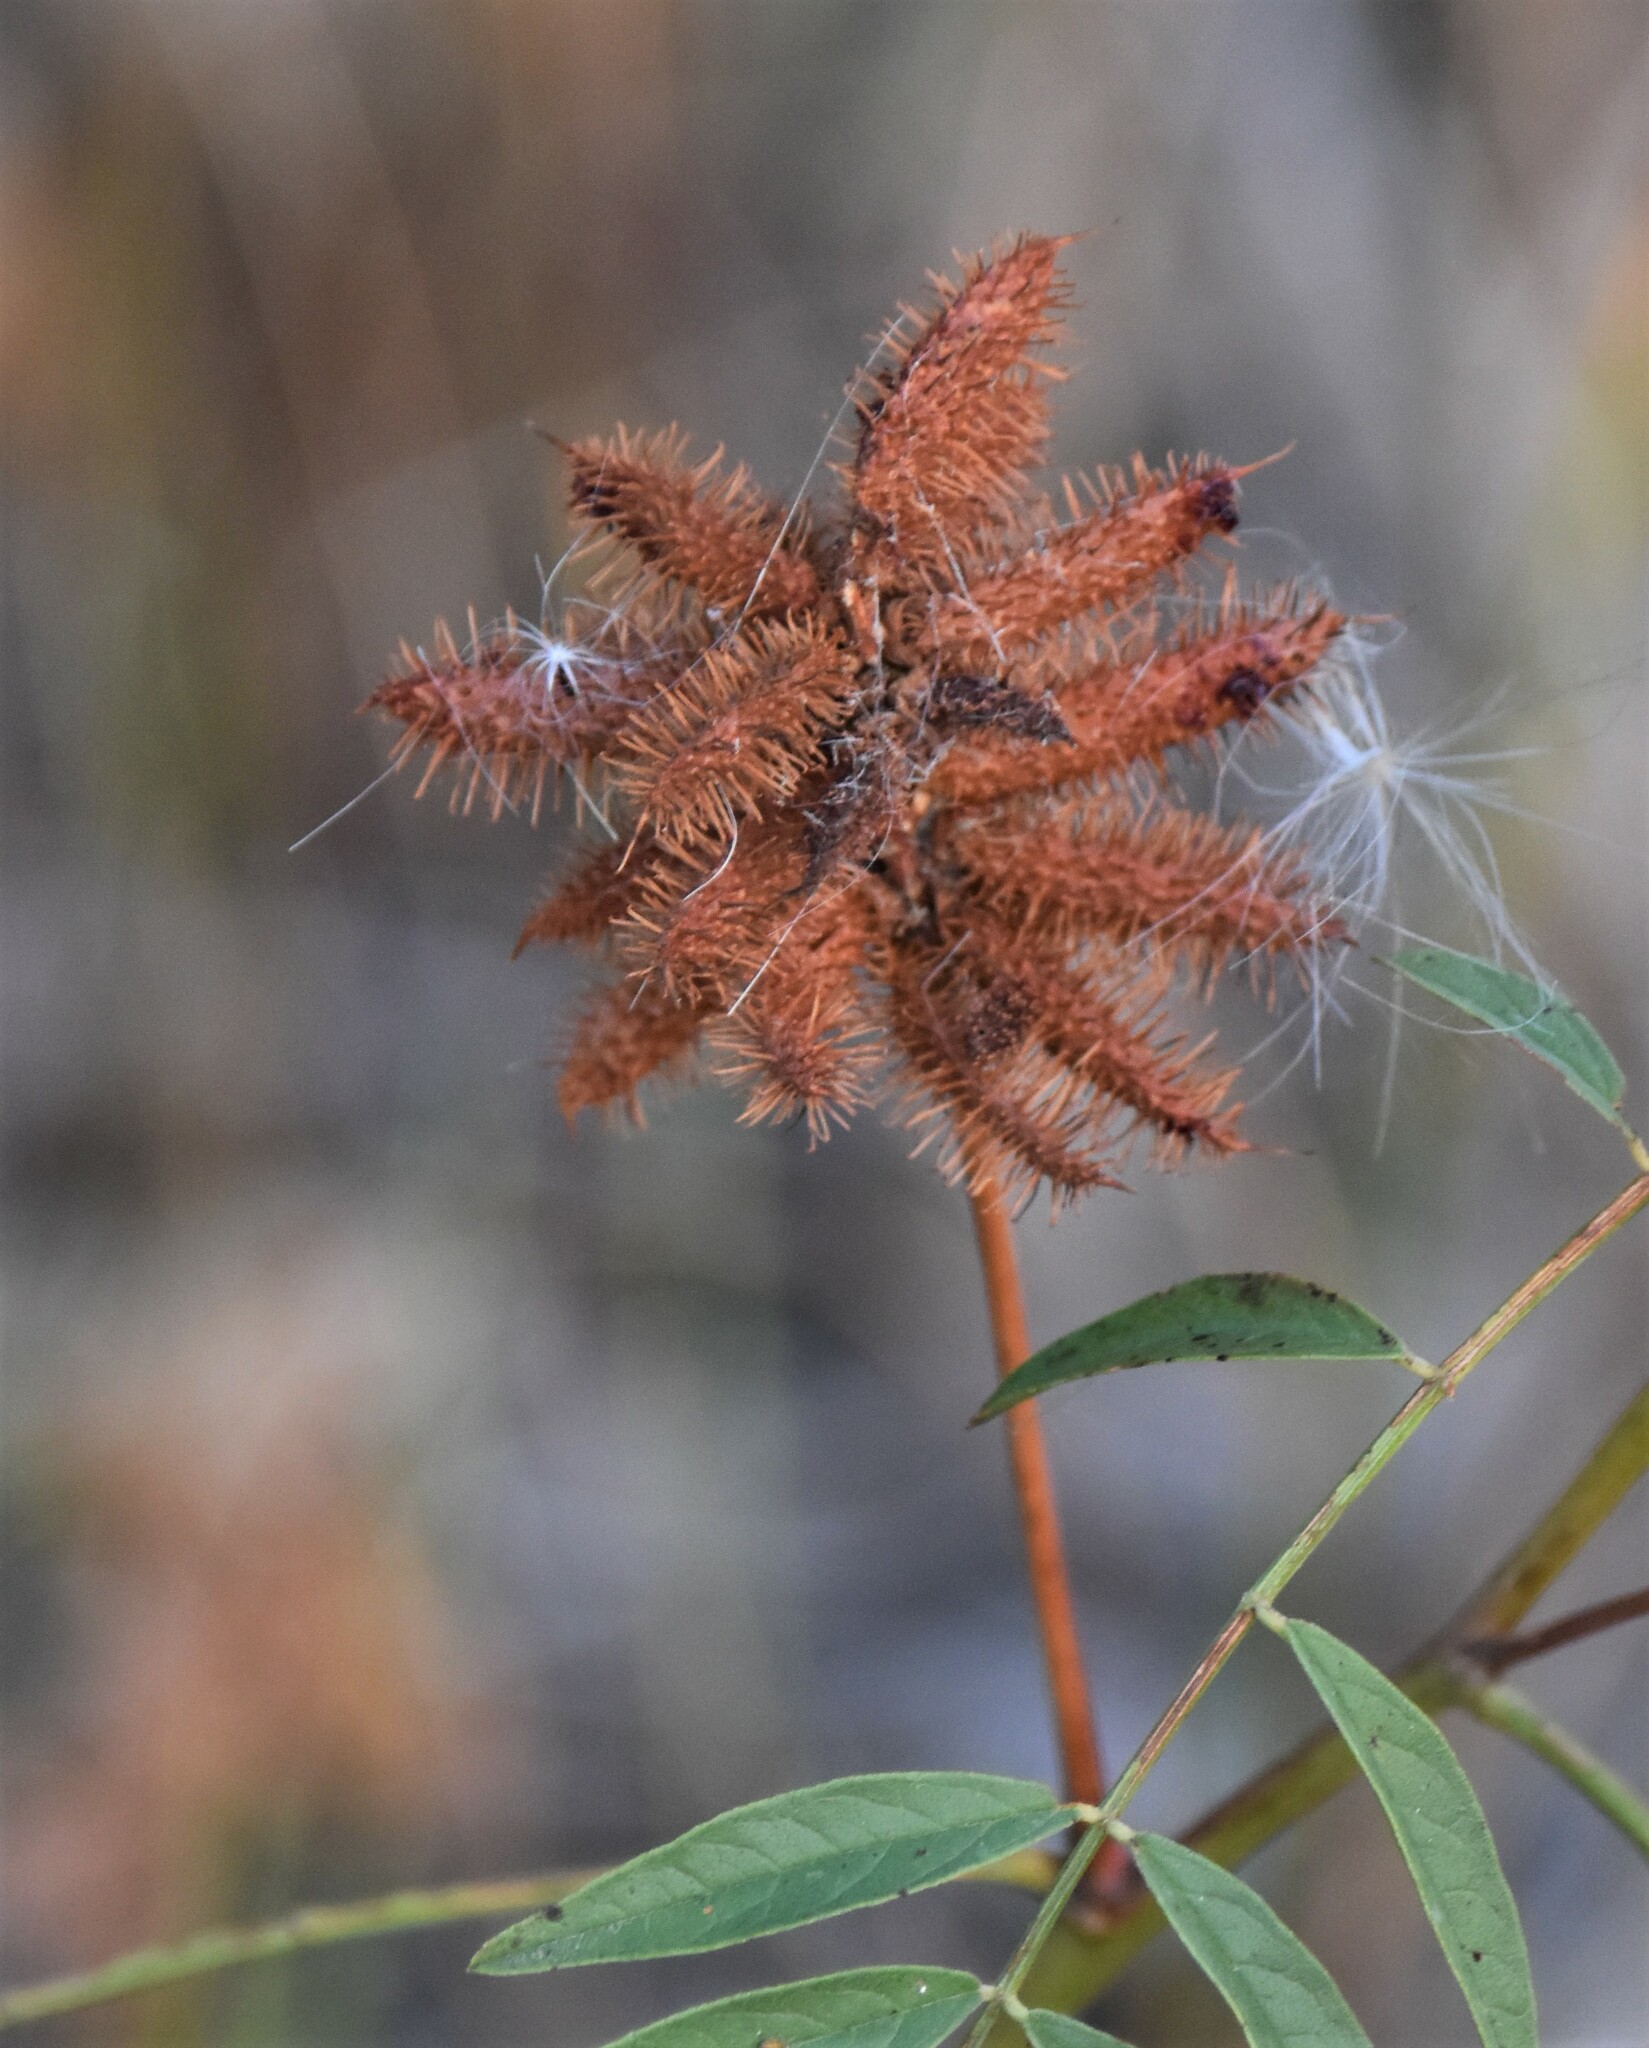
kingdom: Plantae
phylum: Tracheophyta
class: Magnoliopsida
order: Fabales
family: Fabaceae
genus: Glycyrrhiza
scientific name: Glycyrrhiza lepidota
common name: American liquorice
